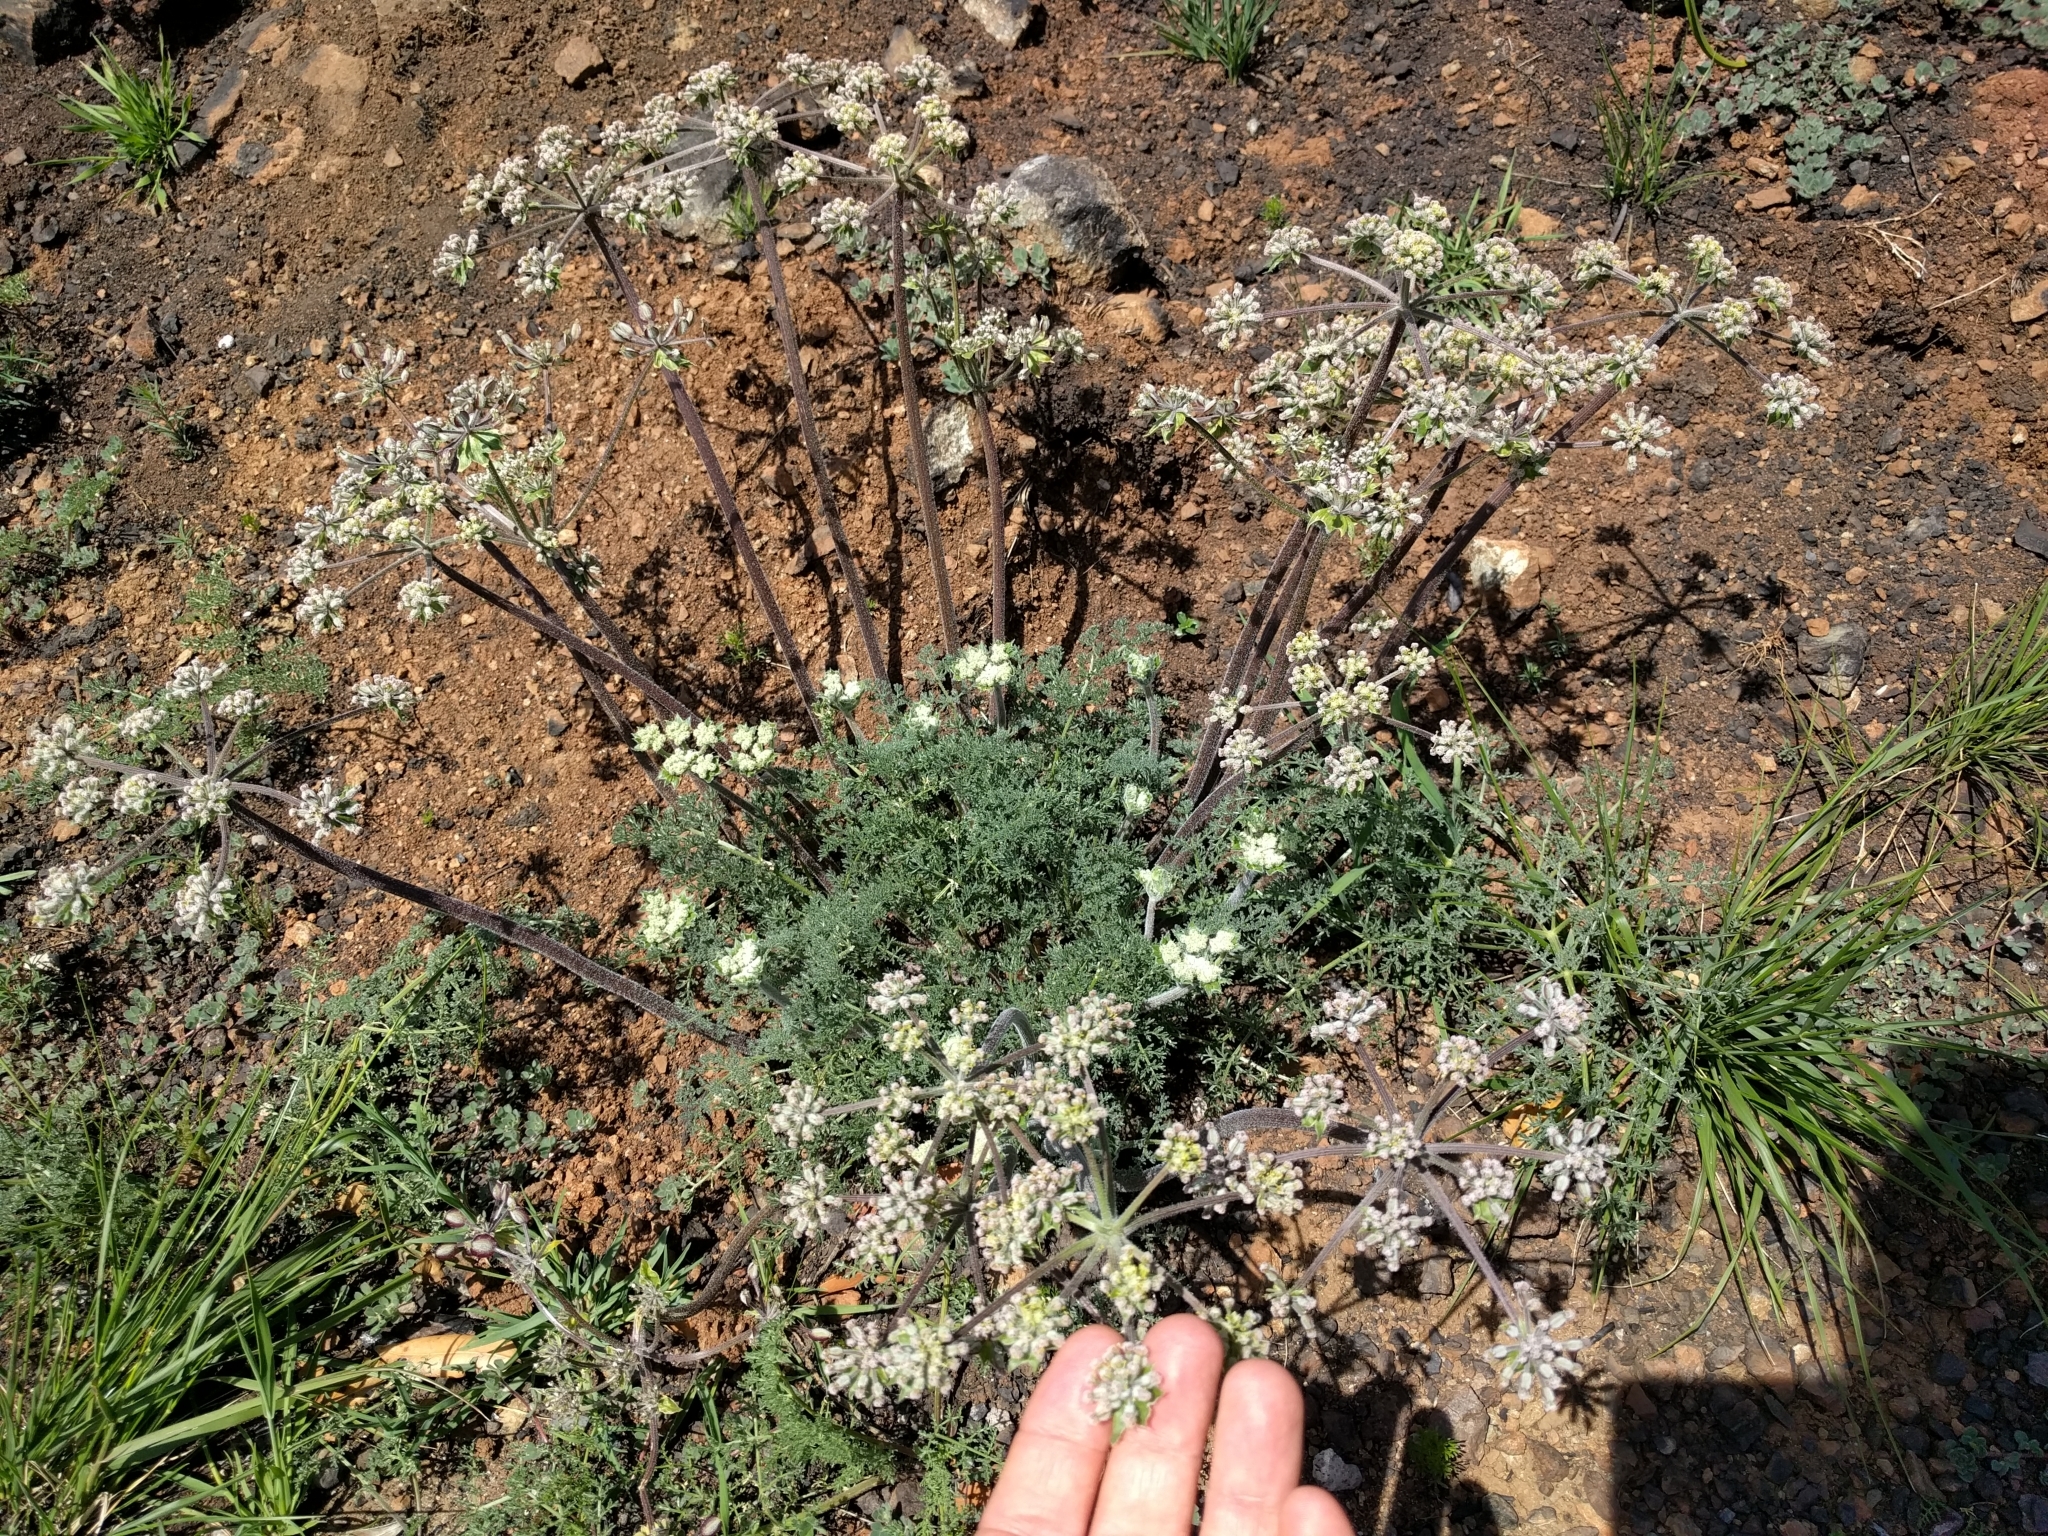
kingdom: Plantae
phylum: Tracheophyta
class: Magnoliopsida
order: Apiales
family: Apiaceae
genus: Lomatium
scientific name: Lomatium dasycarpum
